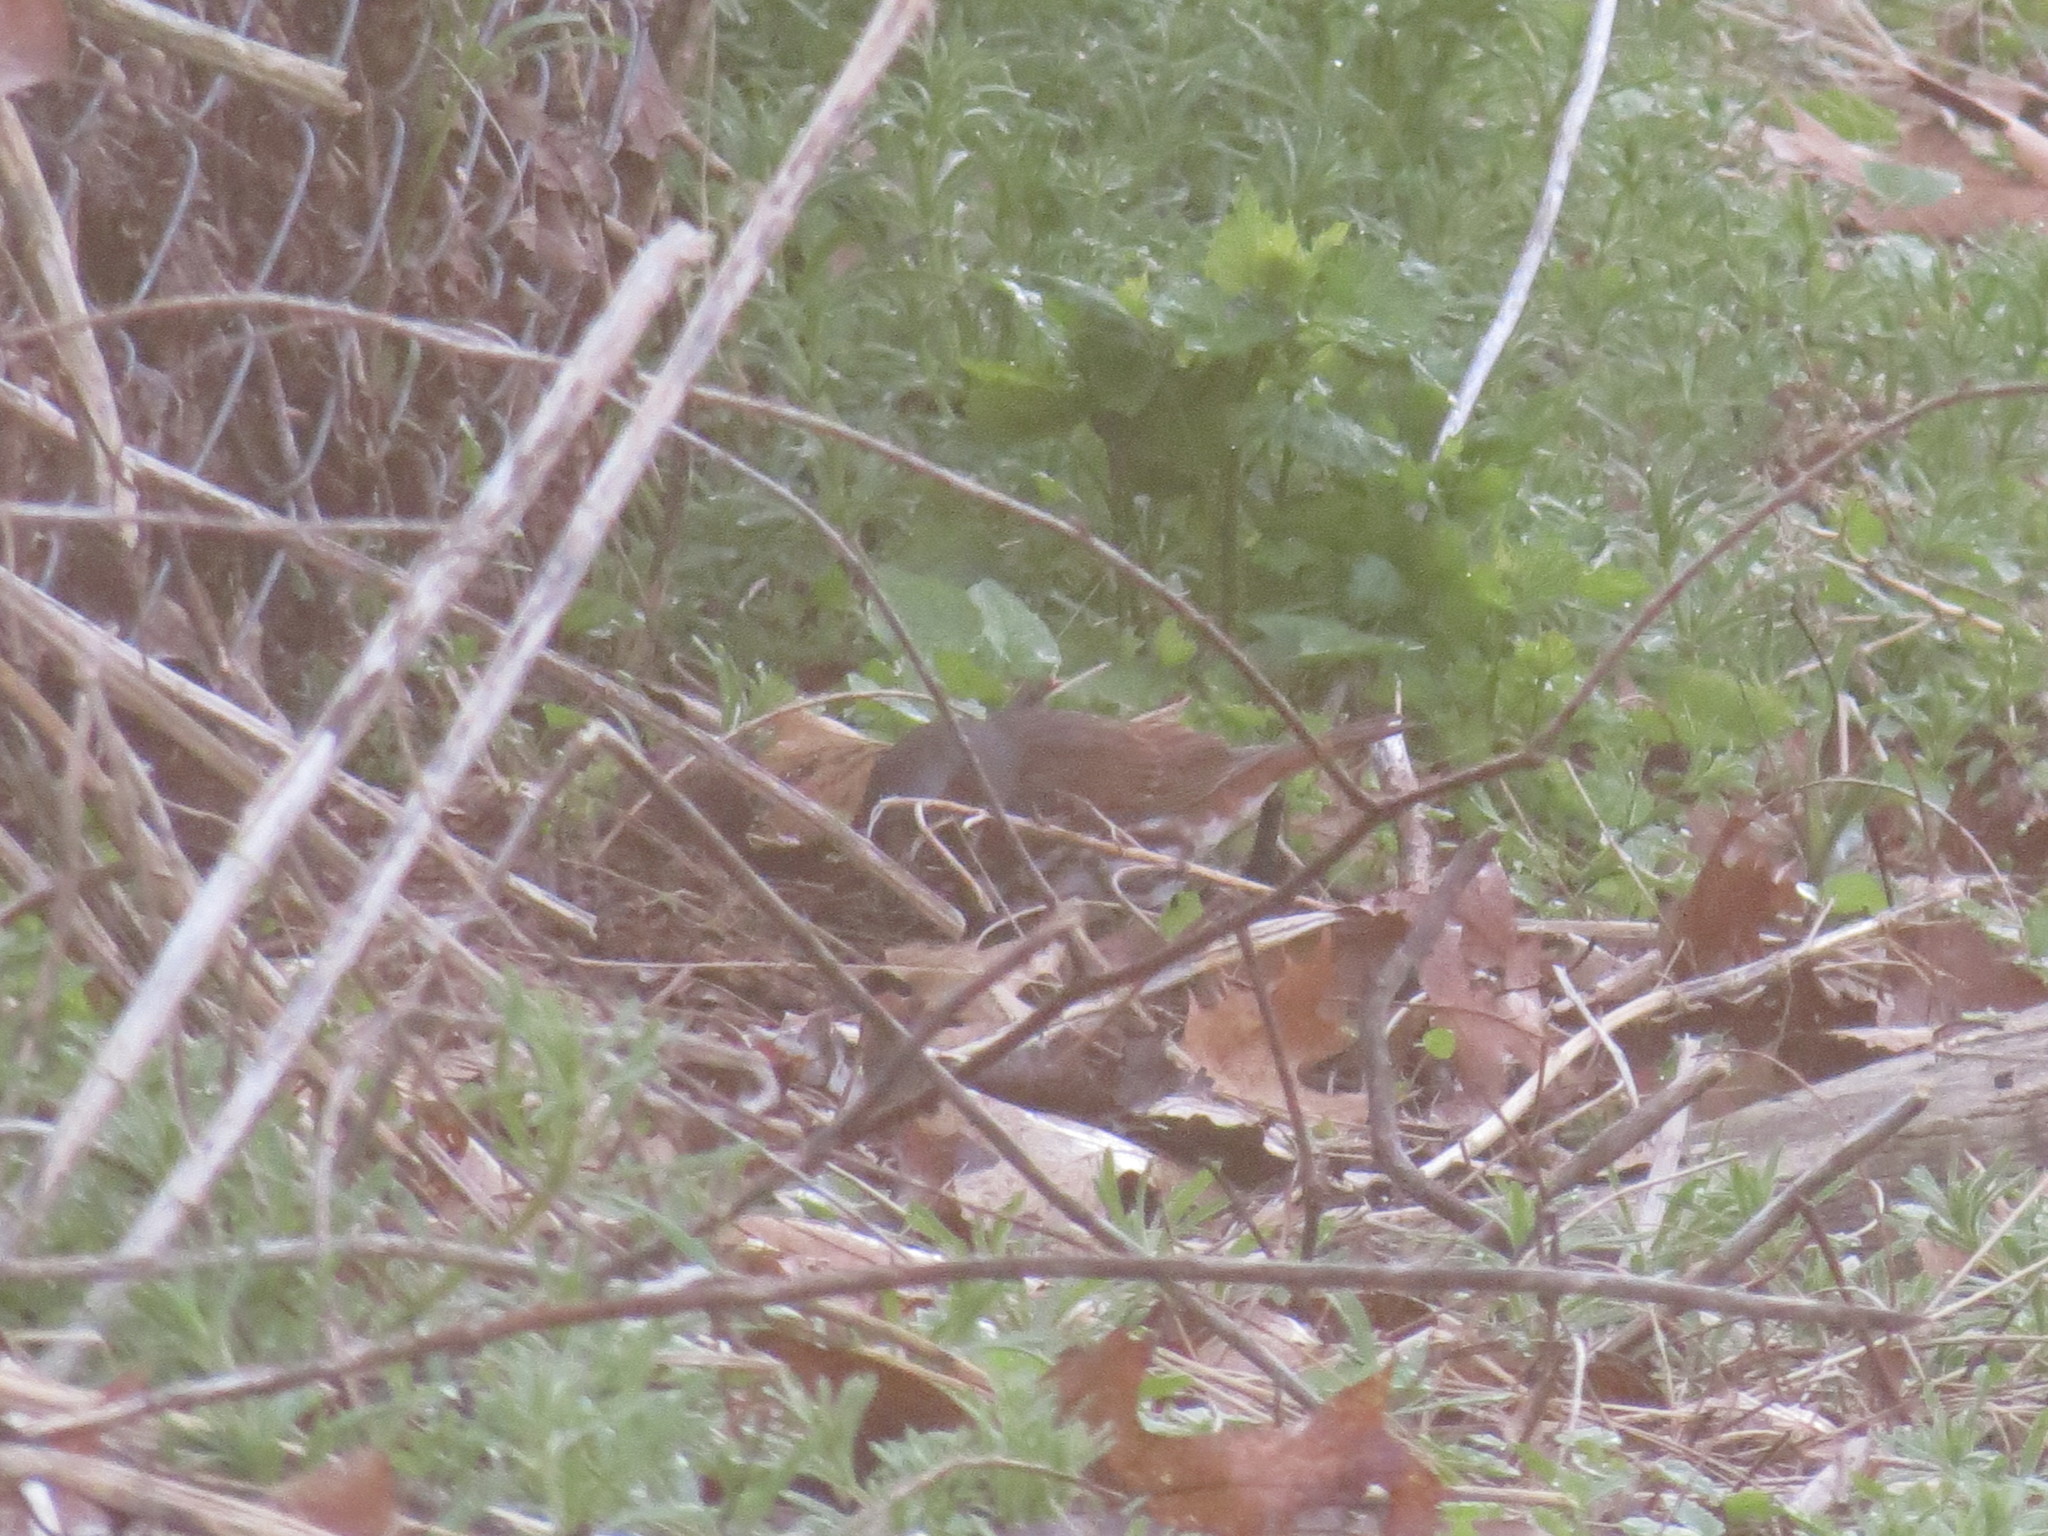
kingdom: Animalia
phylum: Chordata
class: Aves
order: Passeriformes
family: Passerellidae
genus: Passerella
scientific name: Passerella iliaca
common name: Fox sparrow
